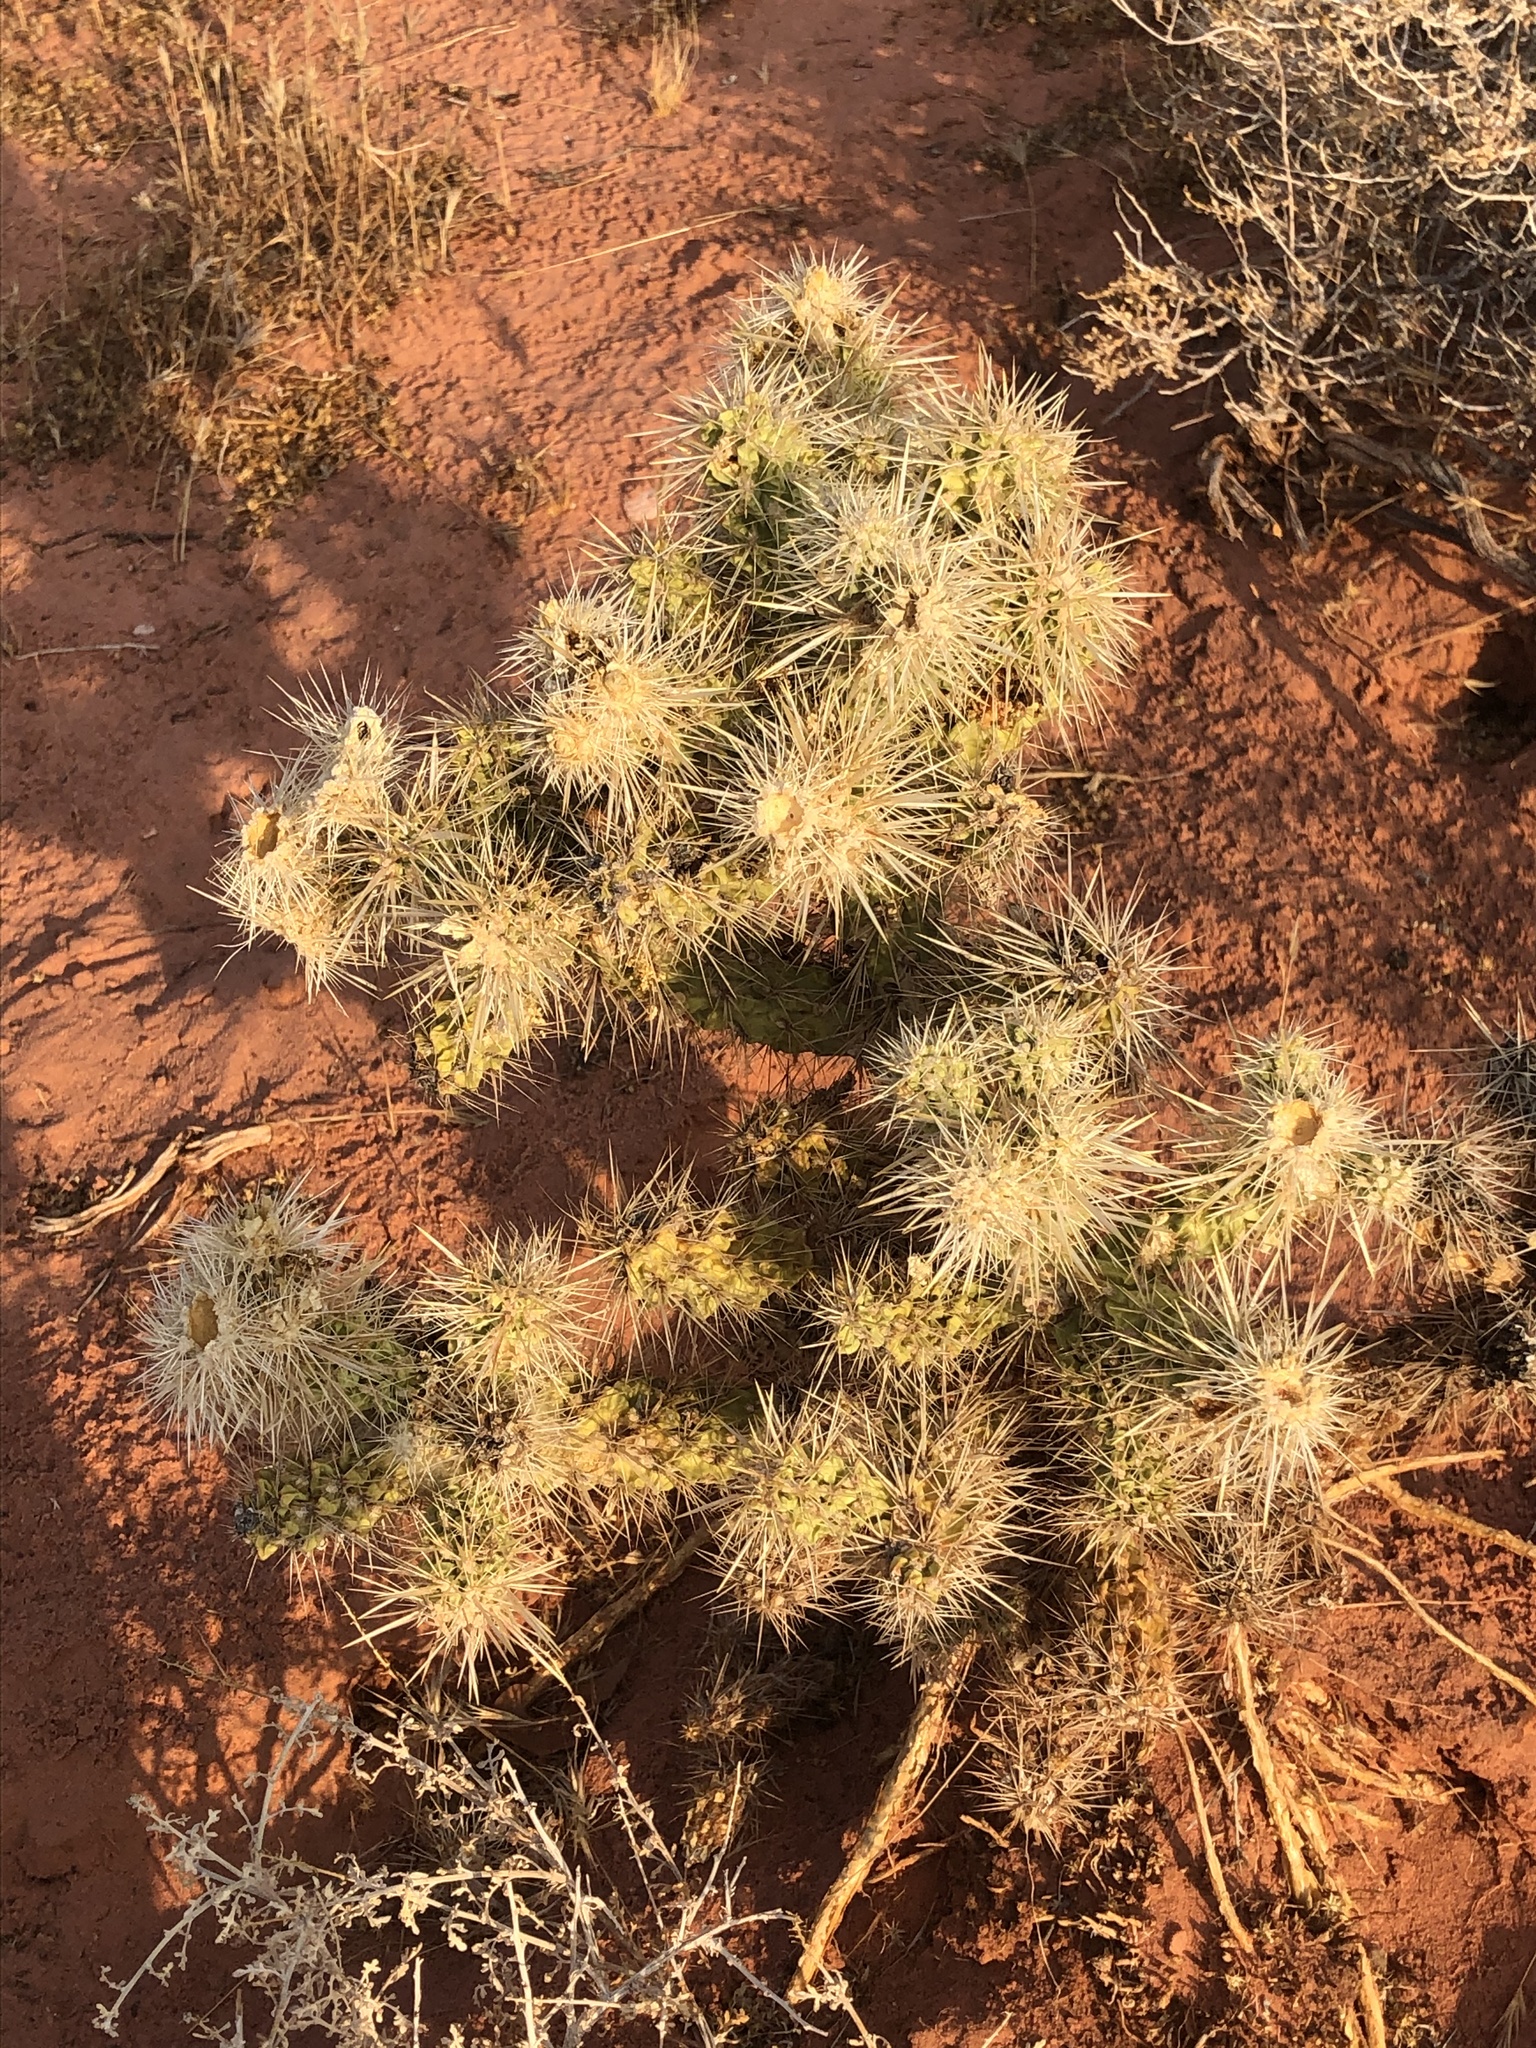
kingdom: Plantae
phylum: Tracheophyta
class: Magnoliopsida
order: Caryophyllales
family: Cactaceae
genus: Cylindropuntia
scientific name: Cylindropuntia echinocarpa
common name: Ground cholla
